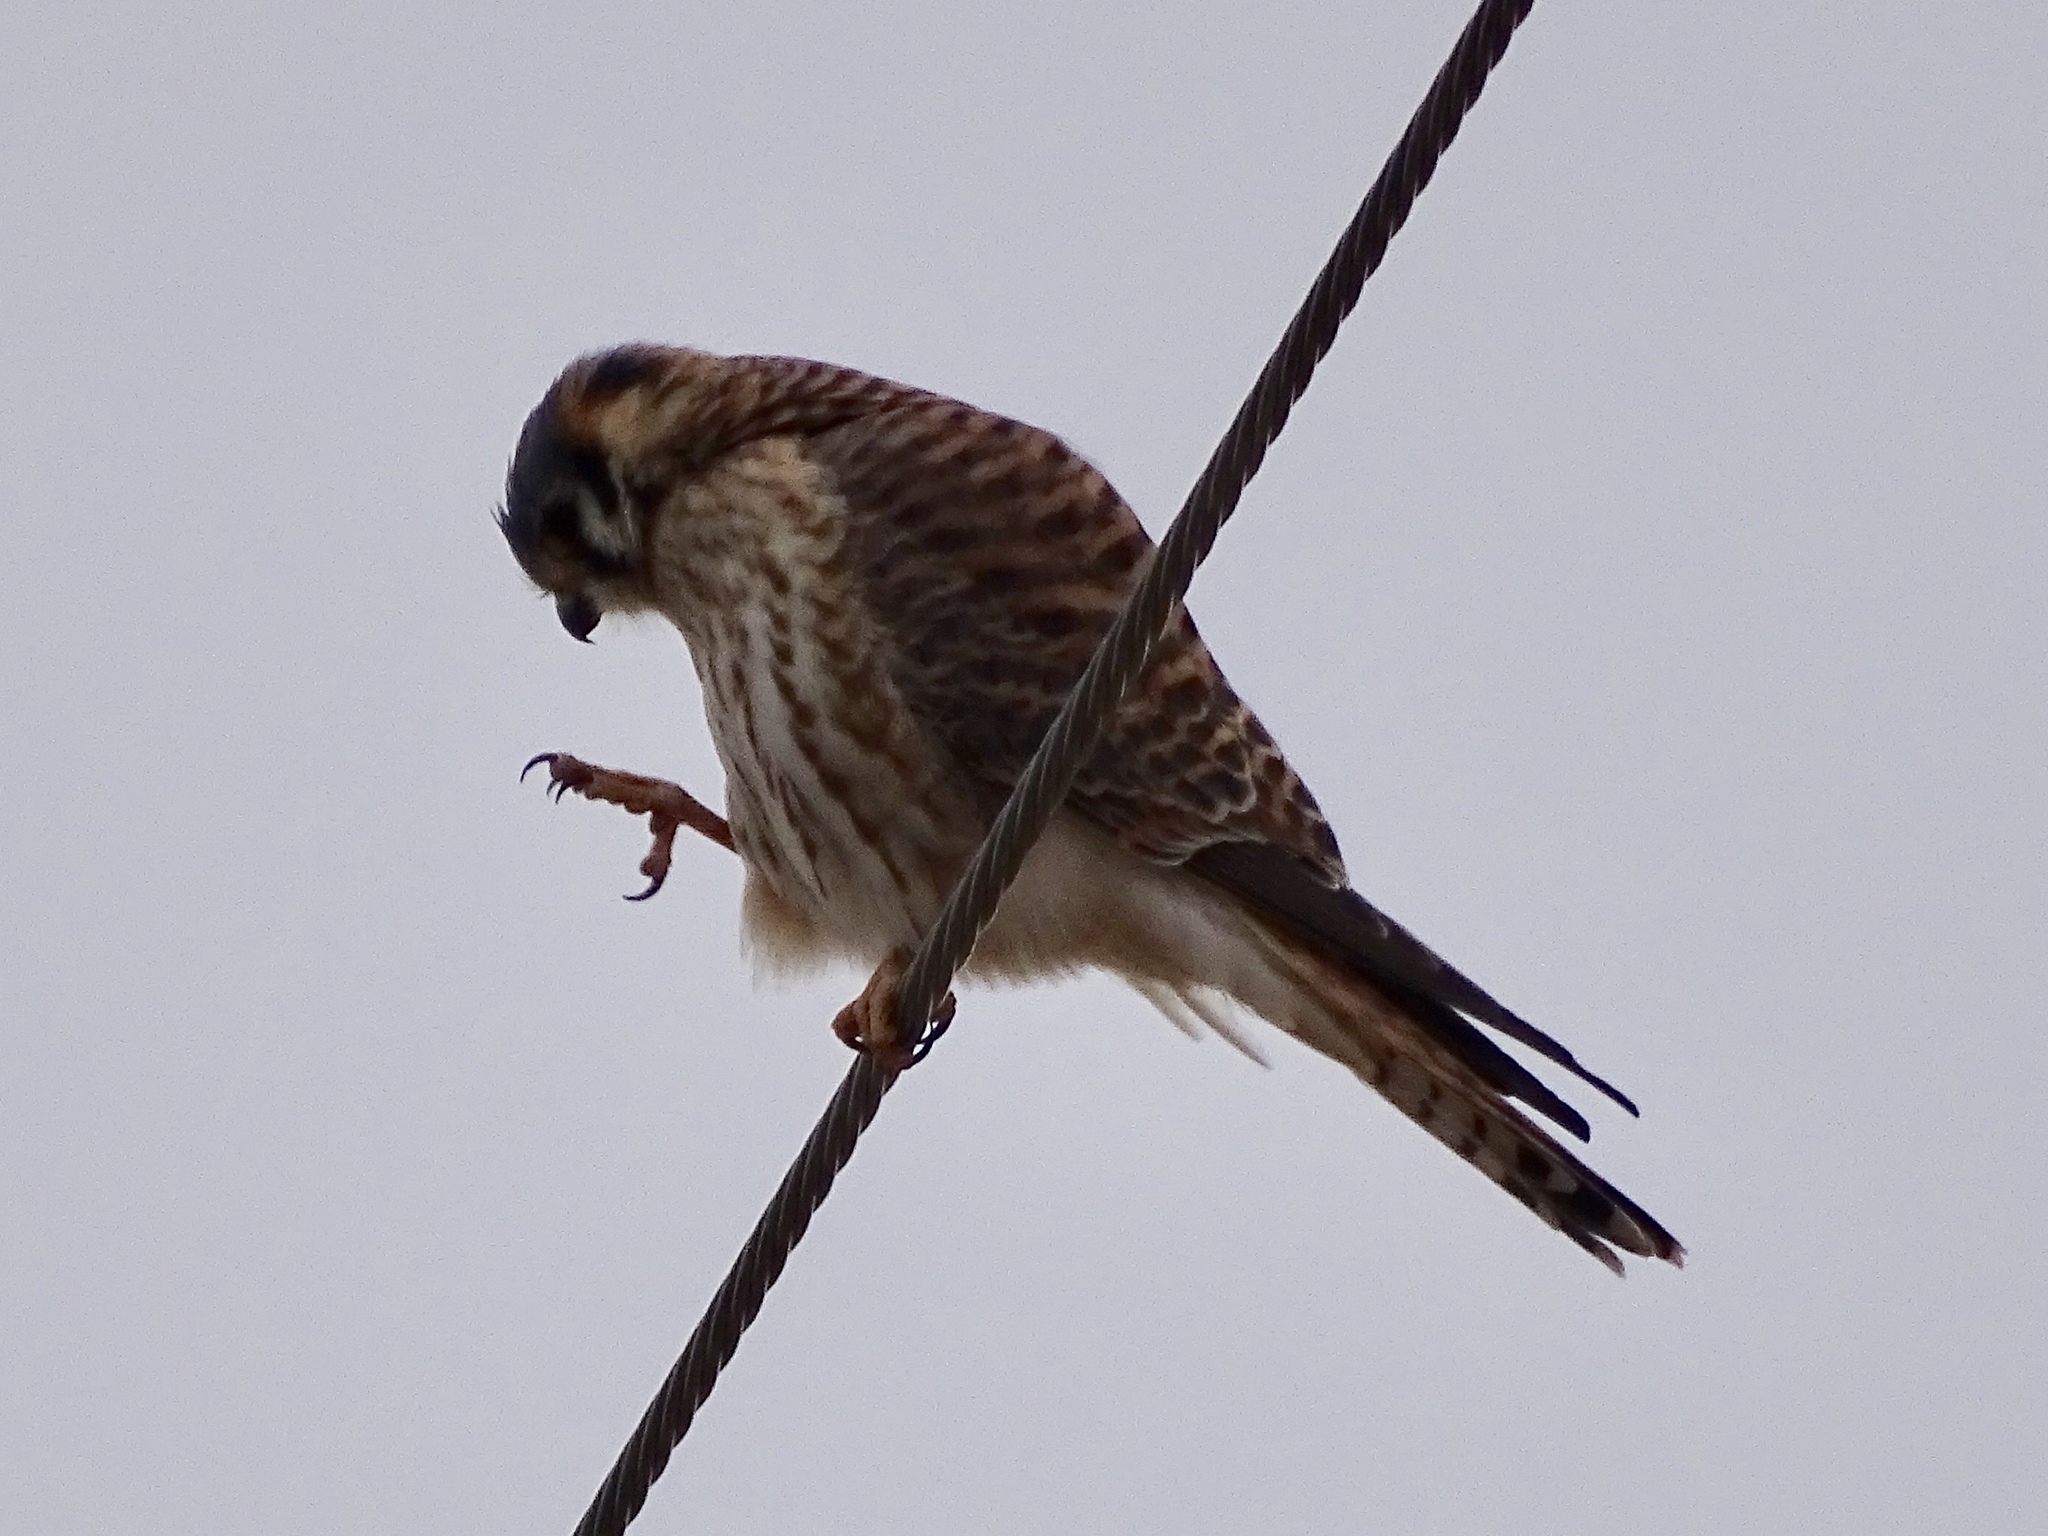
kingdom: Animalia
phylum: Chordata
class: Aves
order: Falconiformes
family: Falconidae
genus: Falco
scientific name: Falco sparverius
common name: American kestrel
